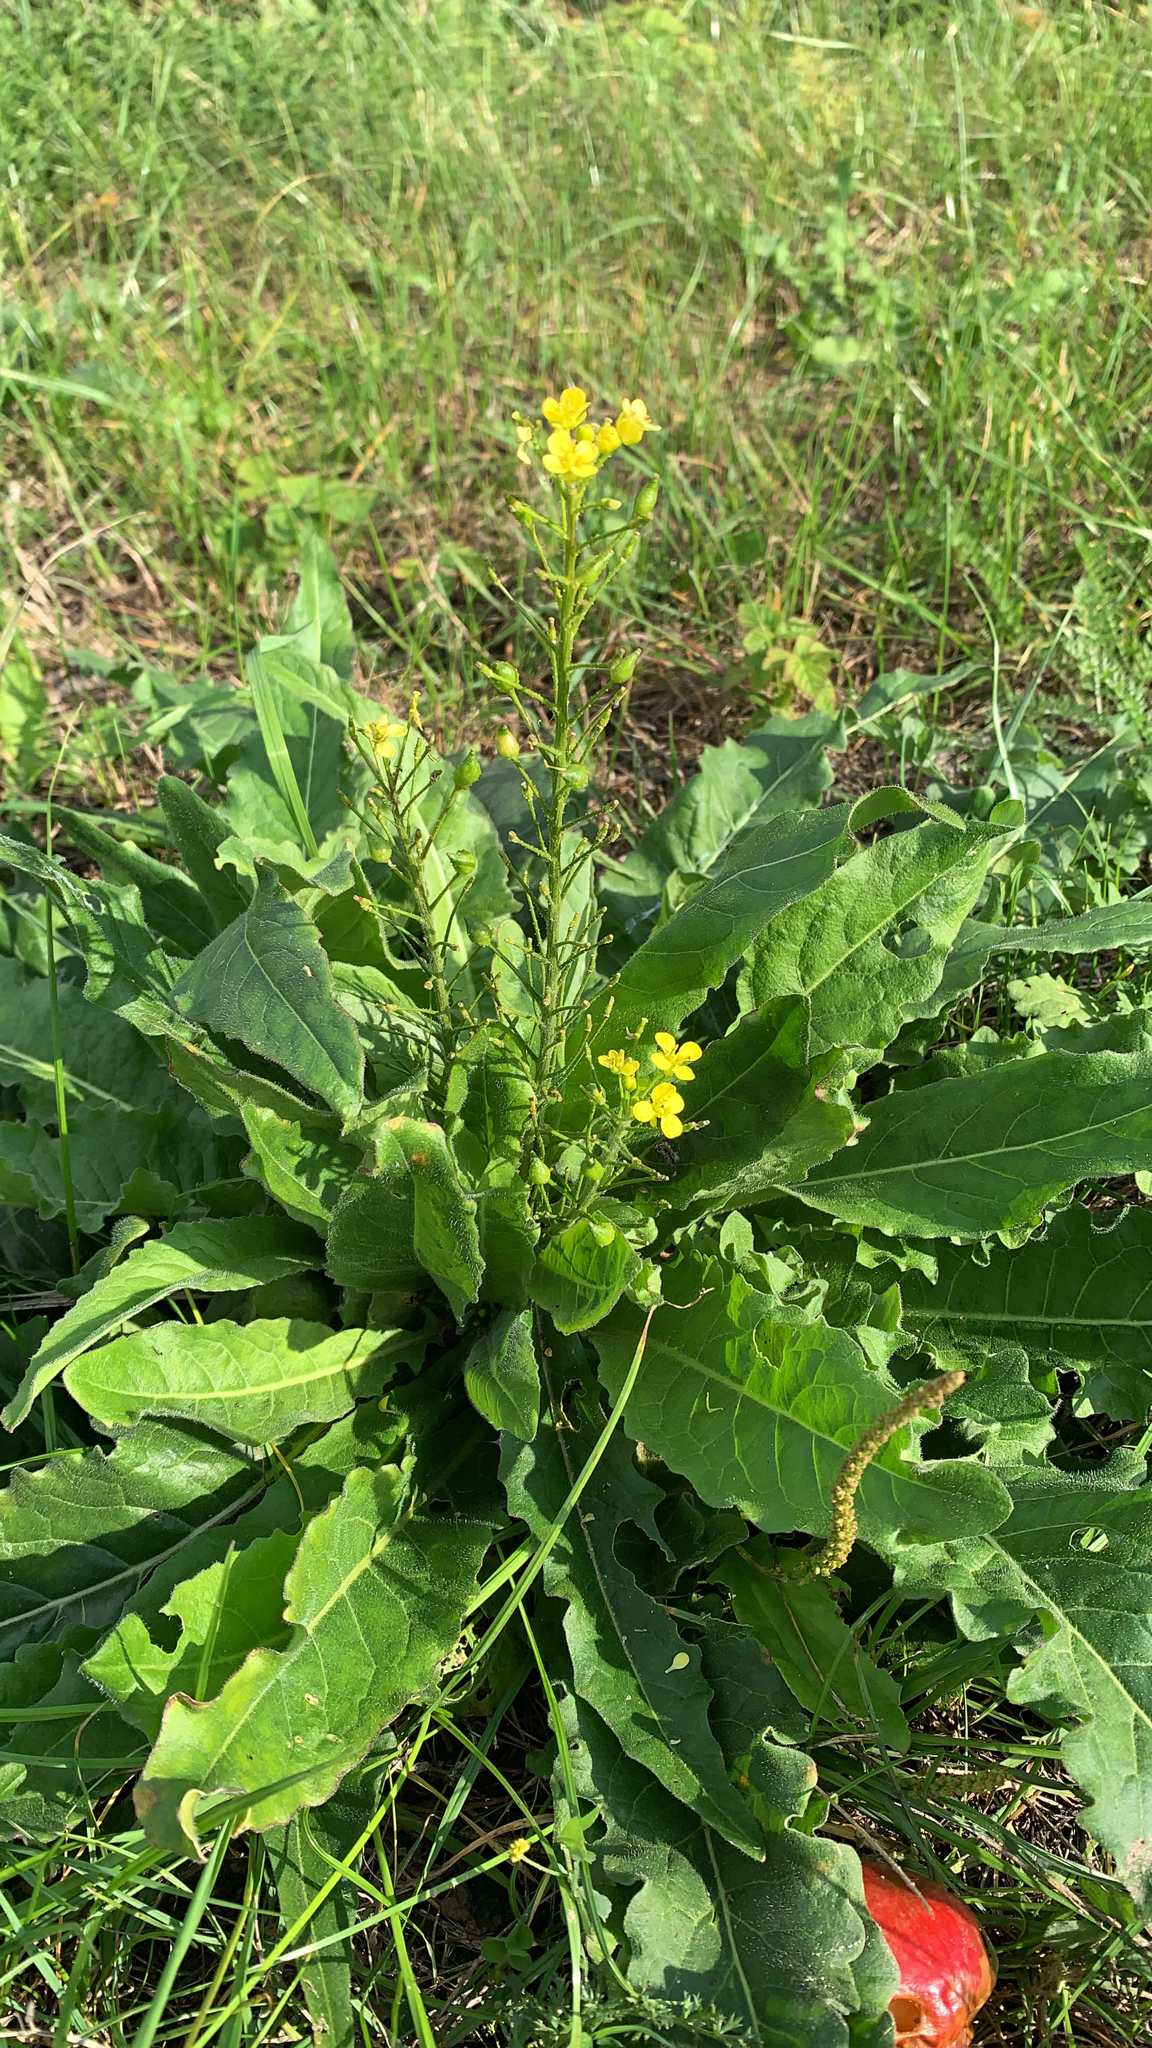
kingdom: Plantae
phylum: Tracheophyta
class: Magnoliopsida
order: Brassicales
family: Brassicaceae
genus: Bunias
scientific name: Bunias orientalis
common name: Warty-cabbage
